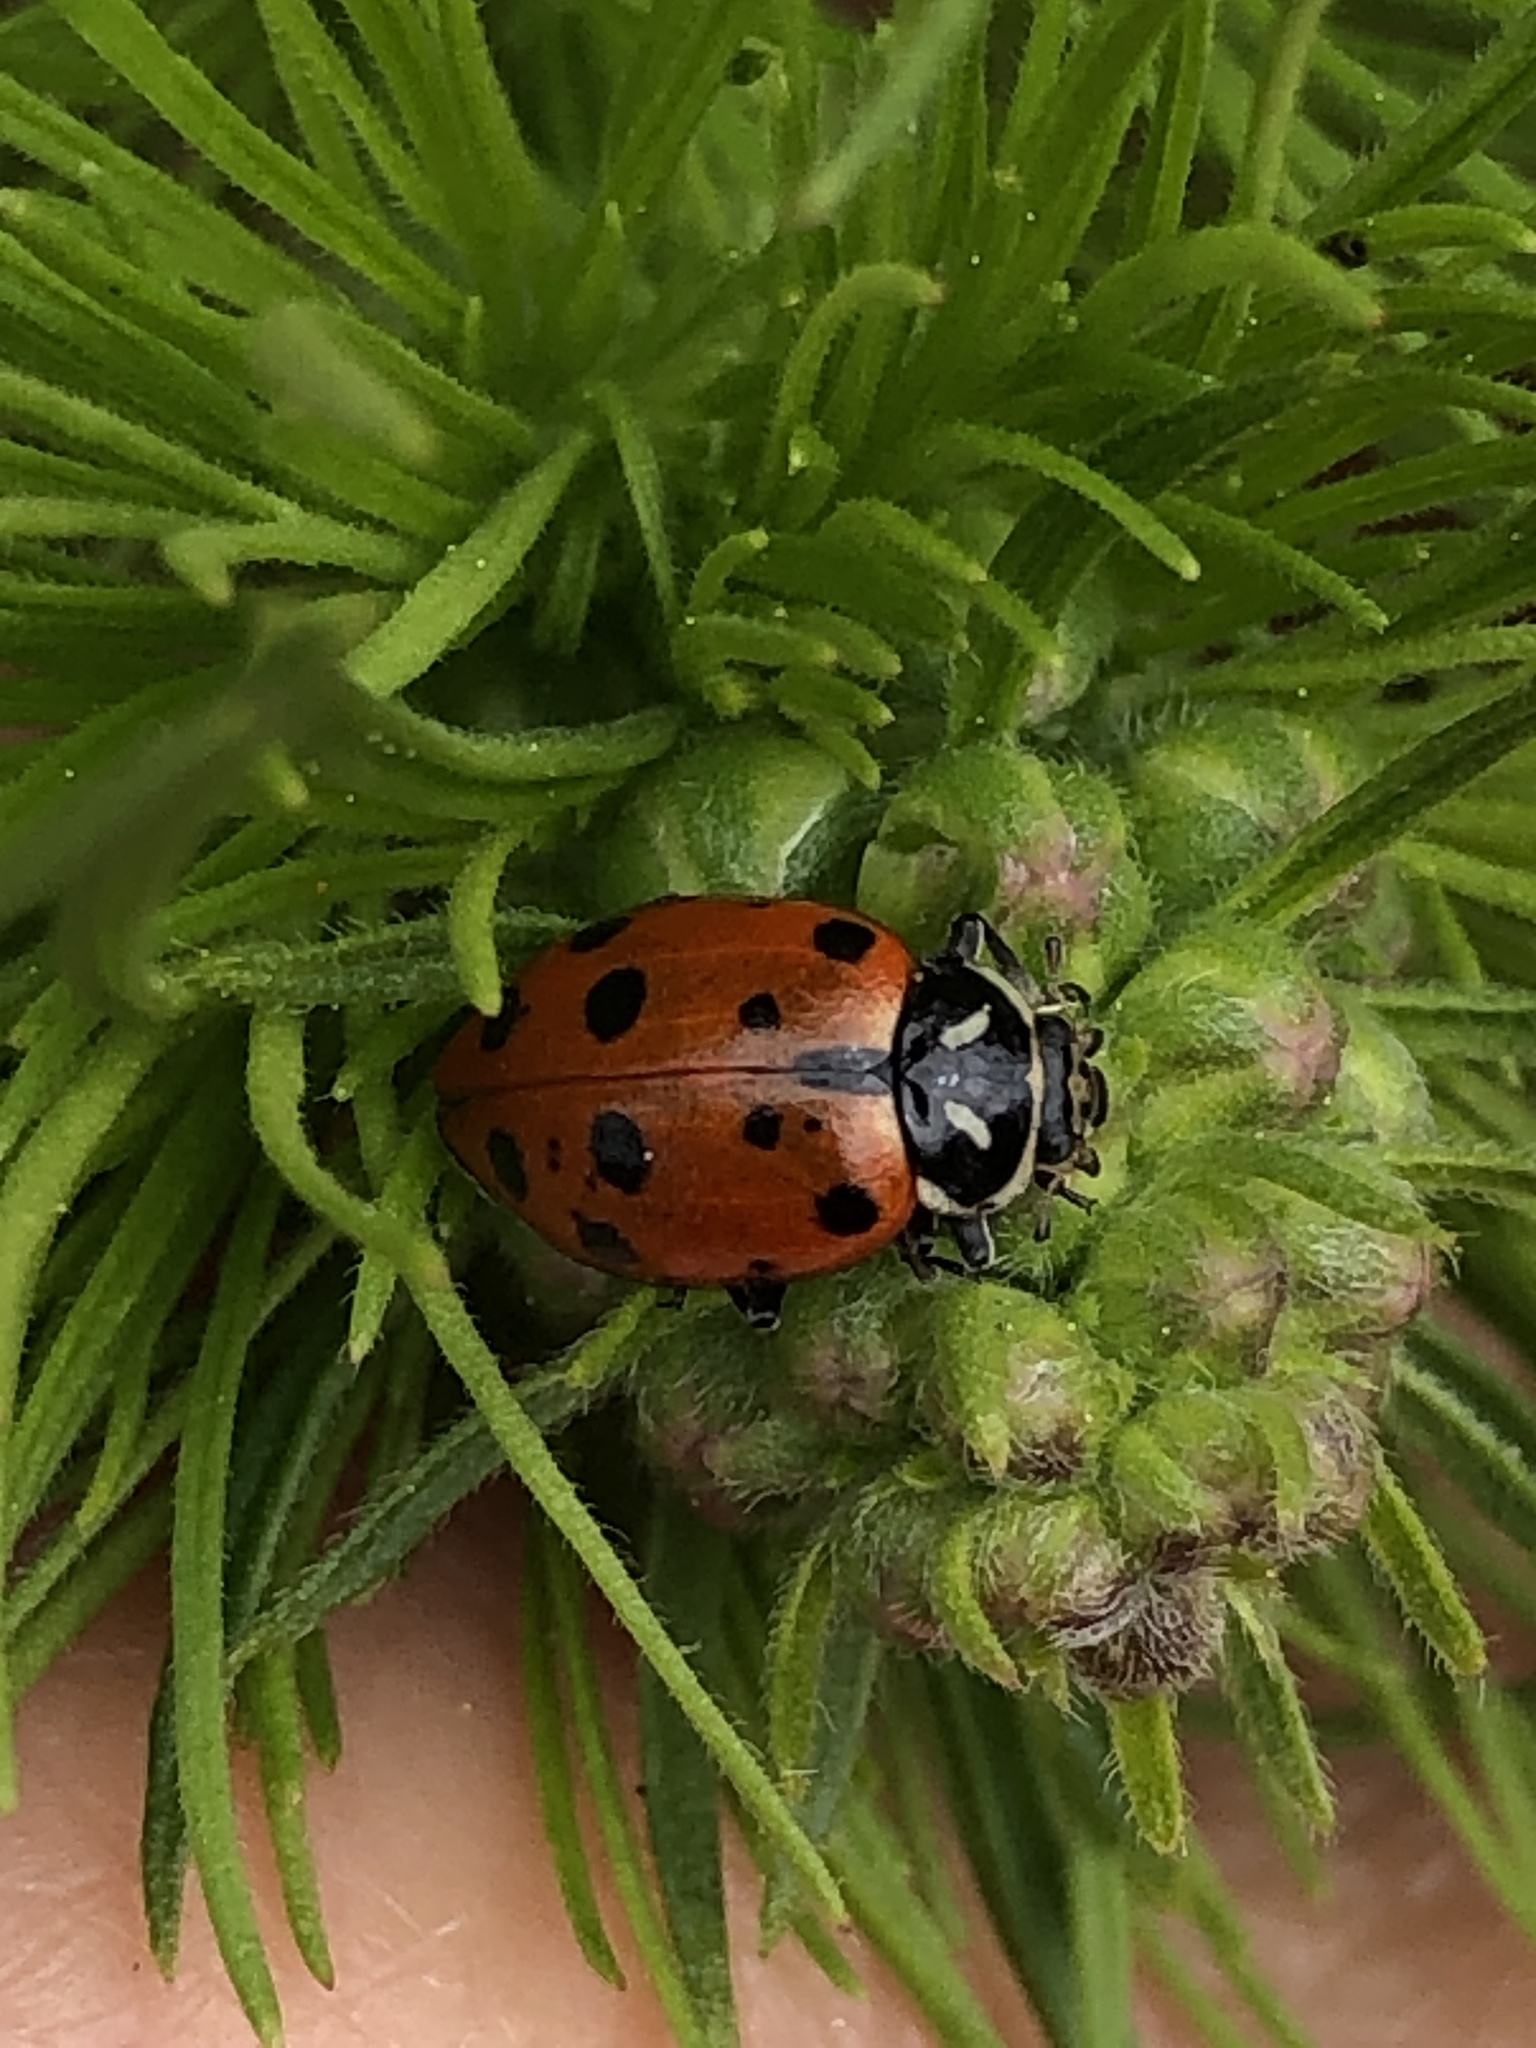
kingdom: Animalia
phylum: Arthropoda
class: Insecta
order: Coleoptera
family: Coccinellidae
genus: Hippodamia
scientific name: Hippodamia convergens
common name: Convergent lady beetle
